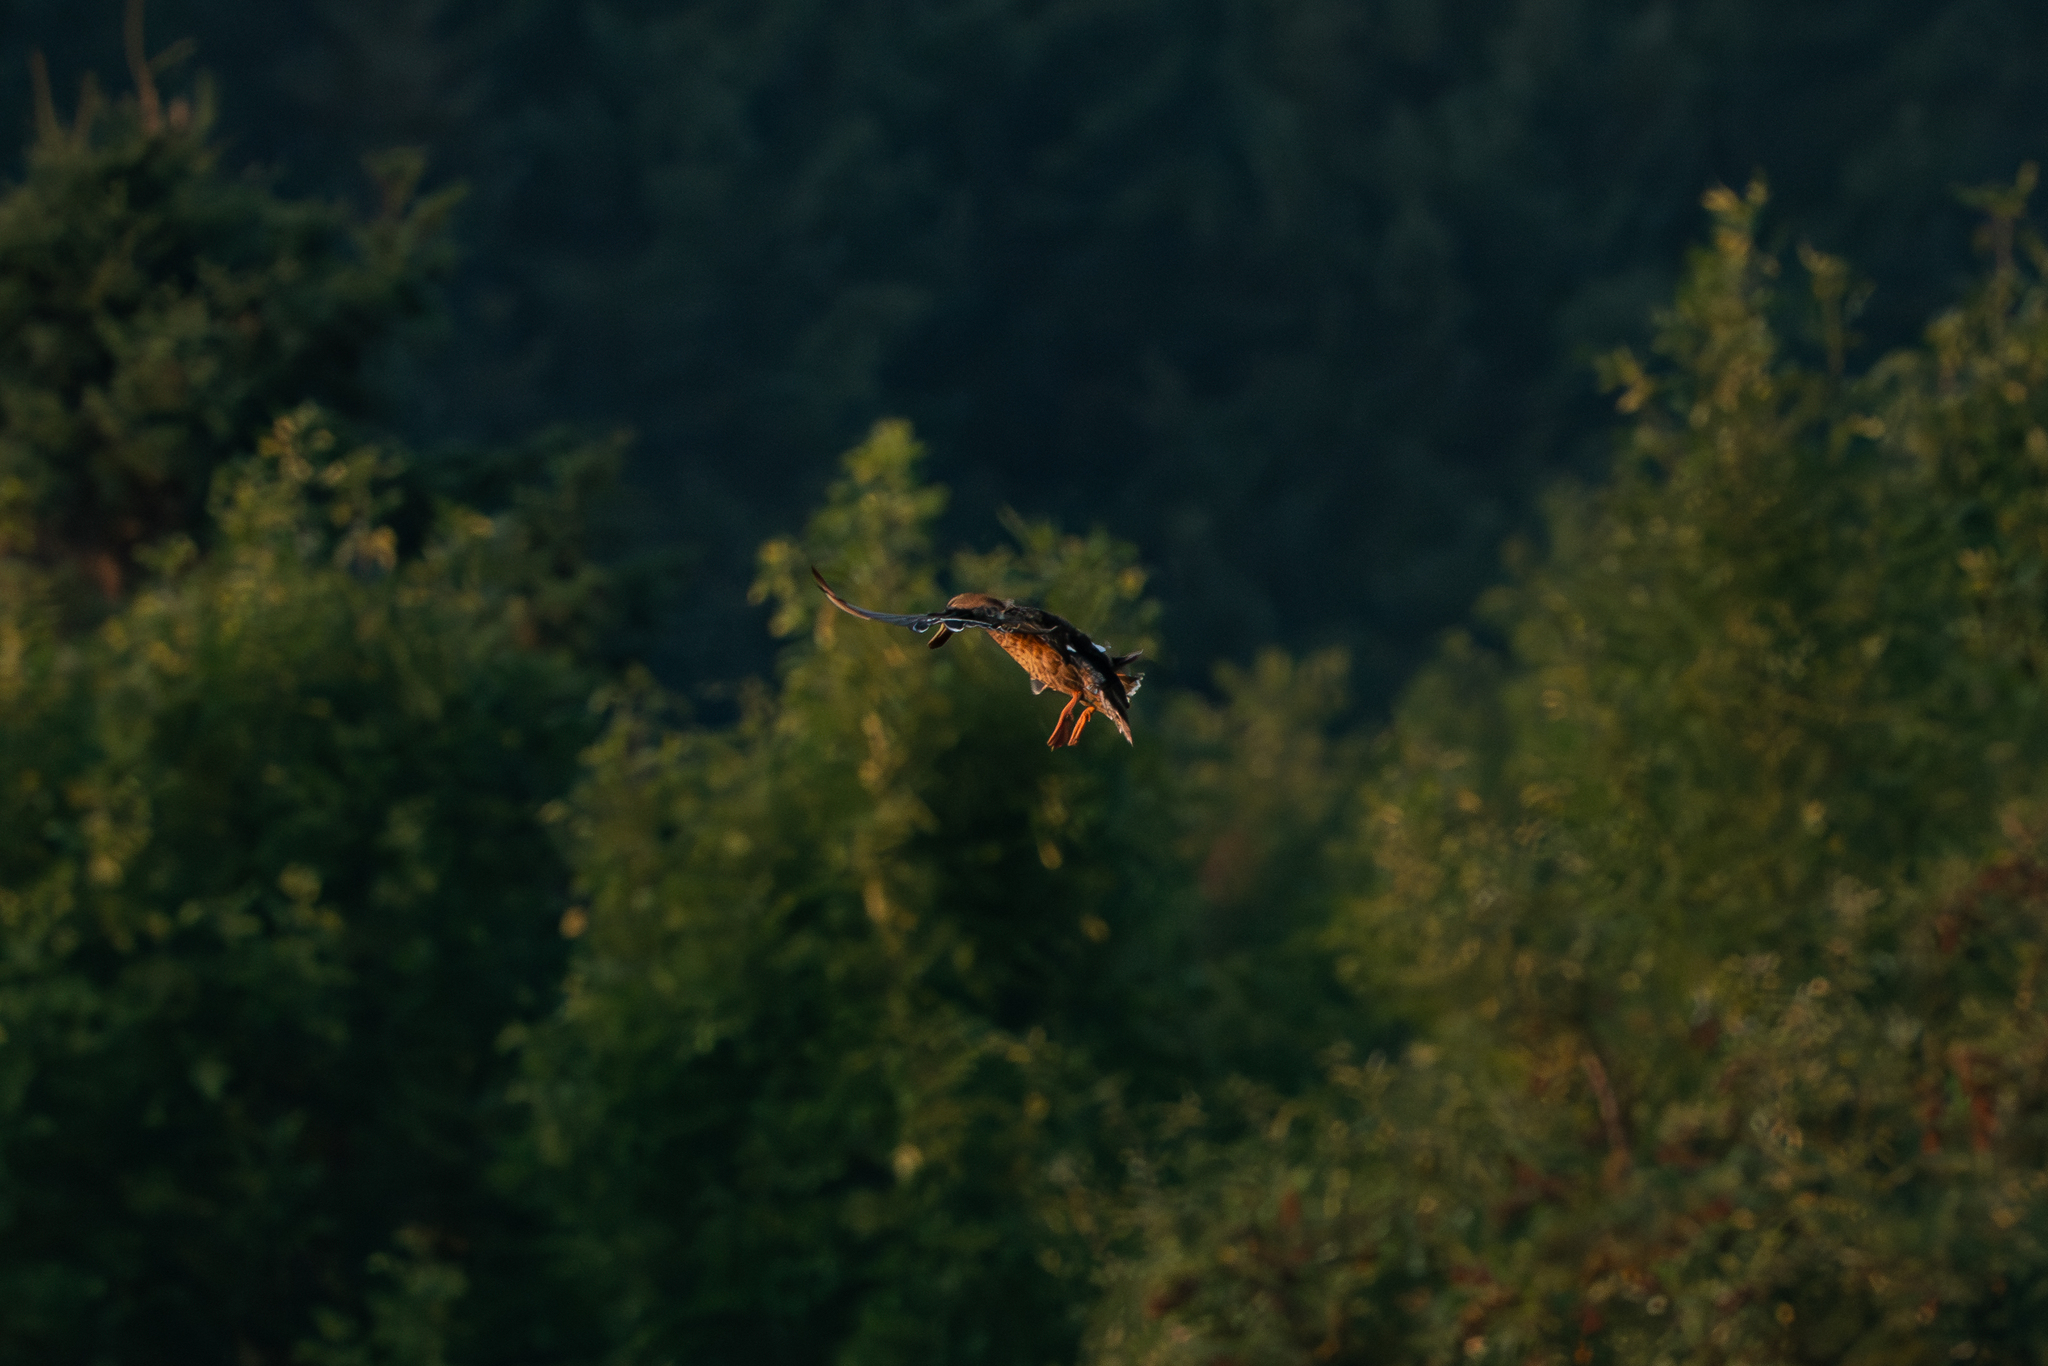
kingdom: Animalia
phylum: Chordata
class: Aves
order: Anseriformes
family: Anatidae
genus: Anas
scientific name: Anas platyrhynchos
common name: Mallard
